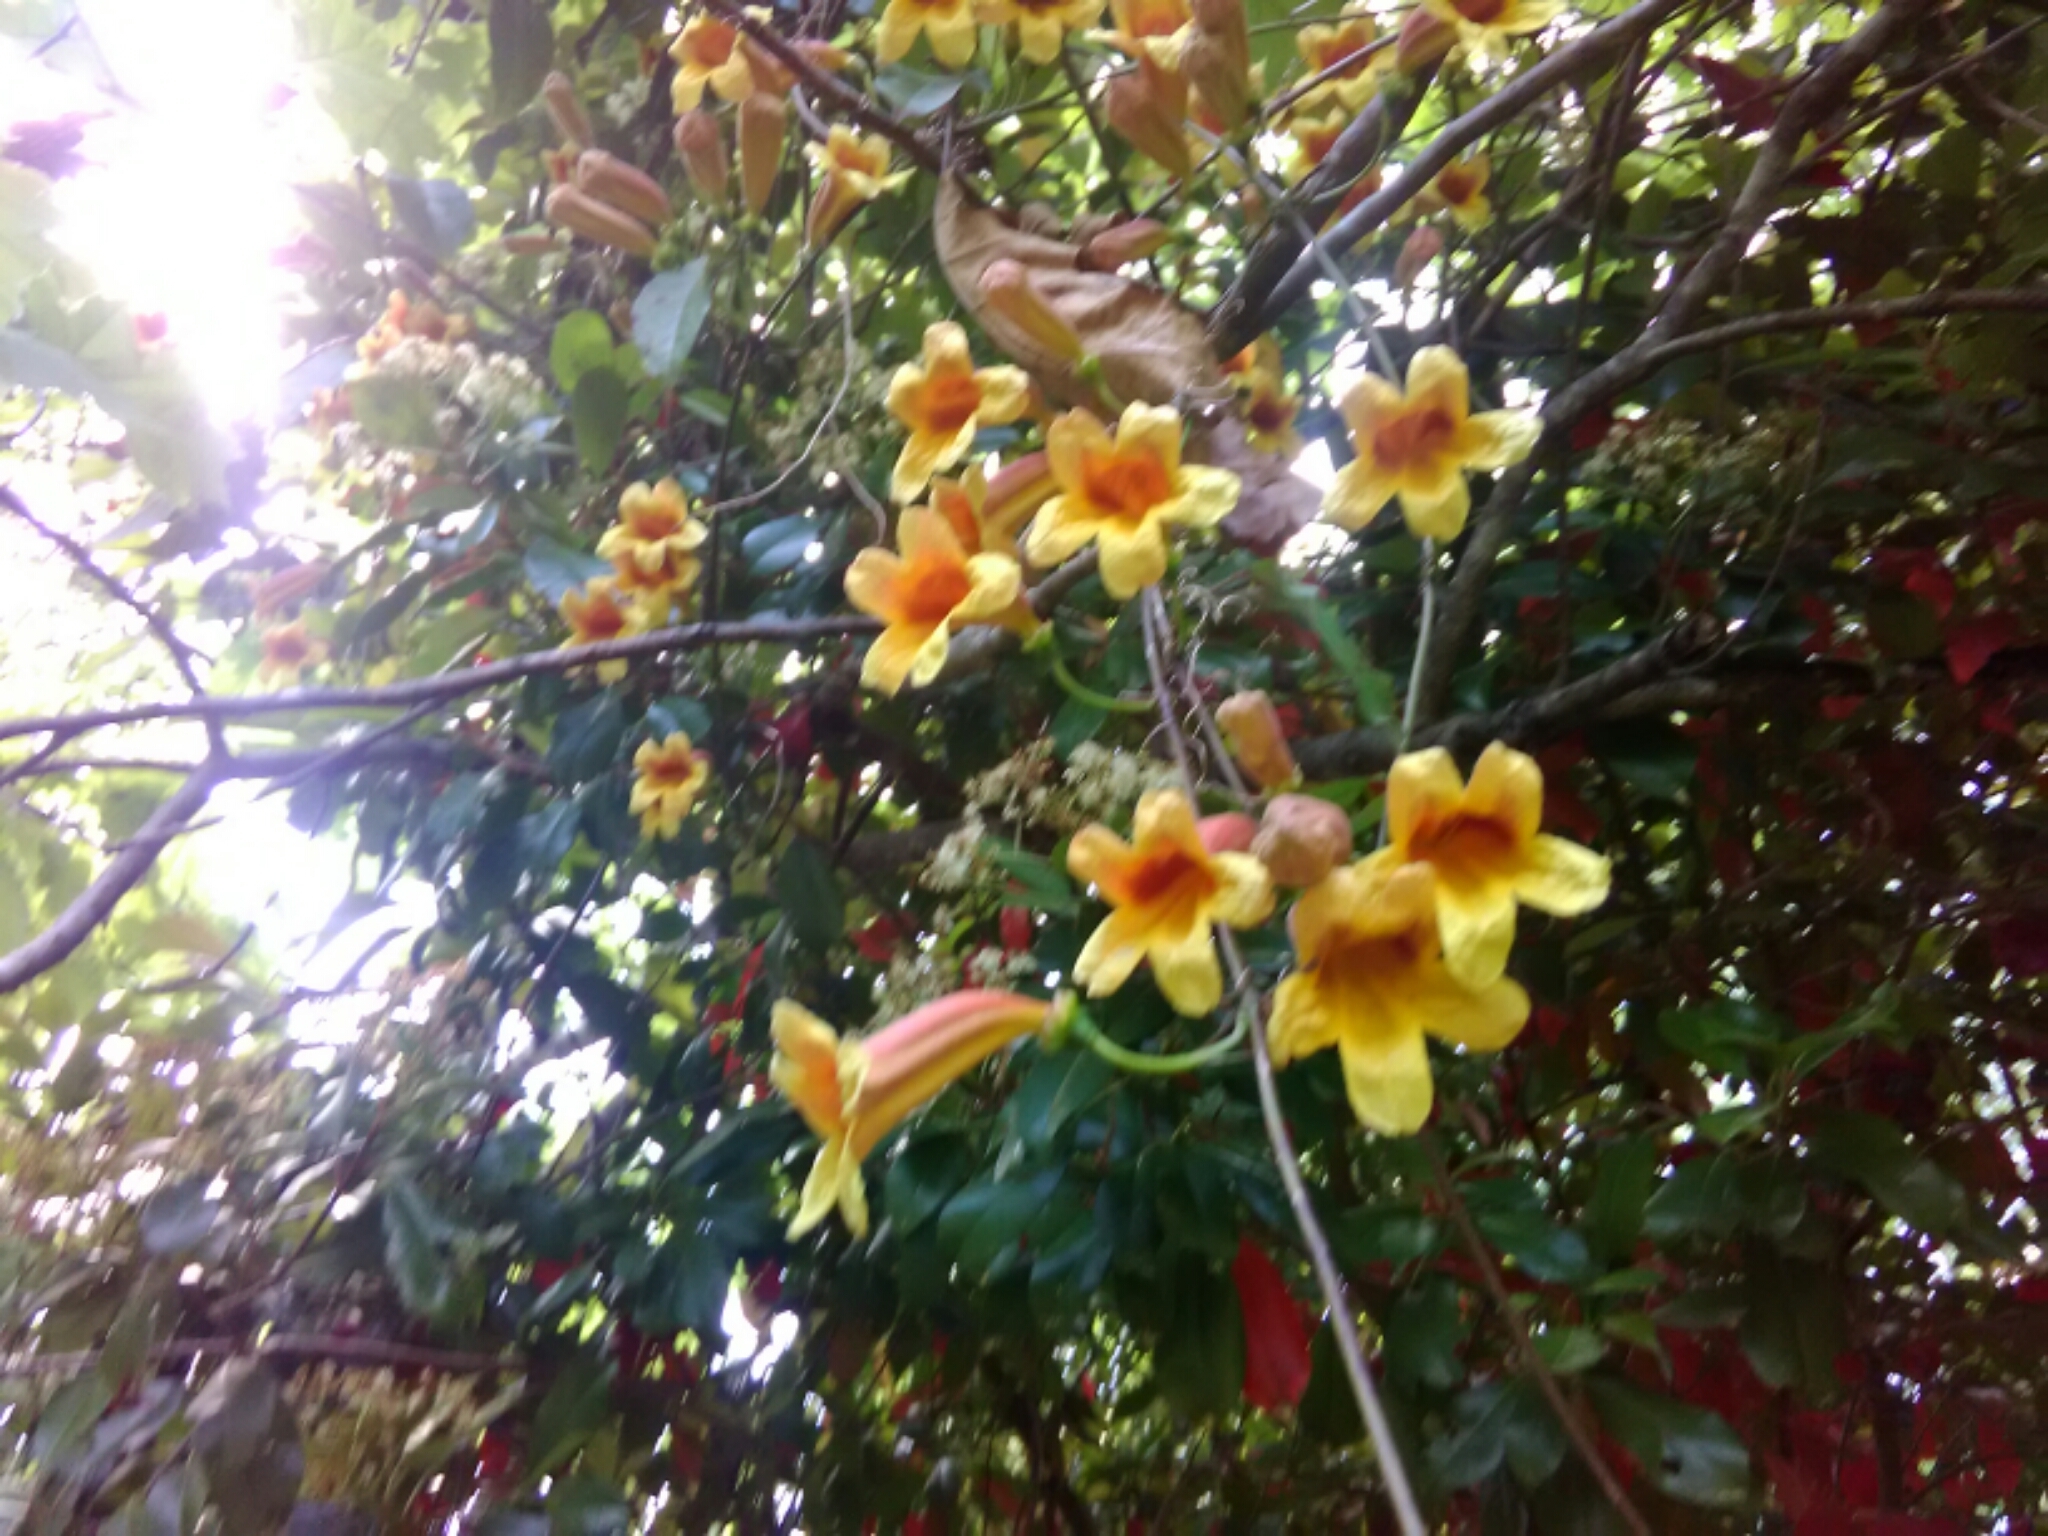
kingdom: Plantae
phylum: Tracheophyta
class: Magnoliopsida
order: Lamiales
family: Bignoniaceae
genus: Bignonia
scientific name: Bignonia capreolata
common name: Crossvine
